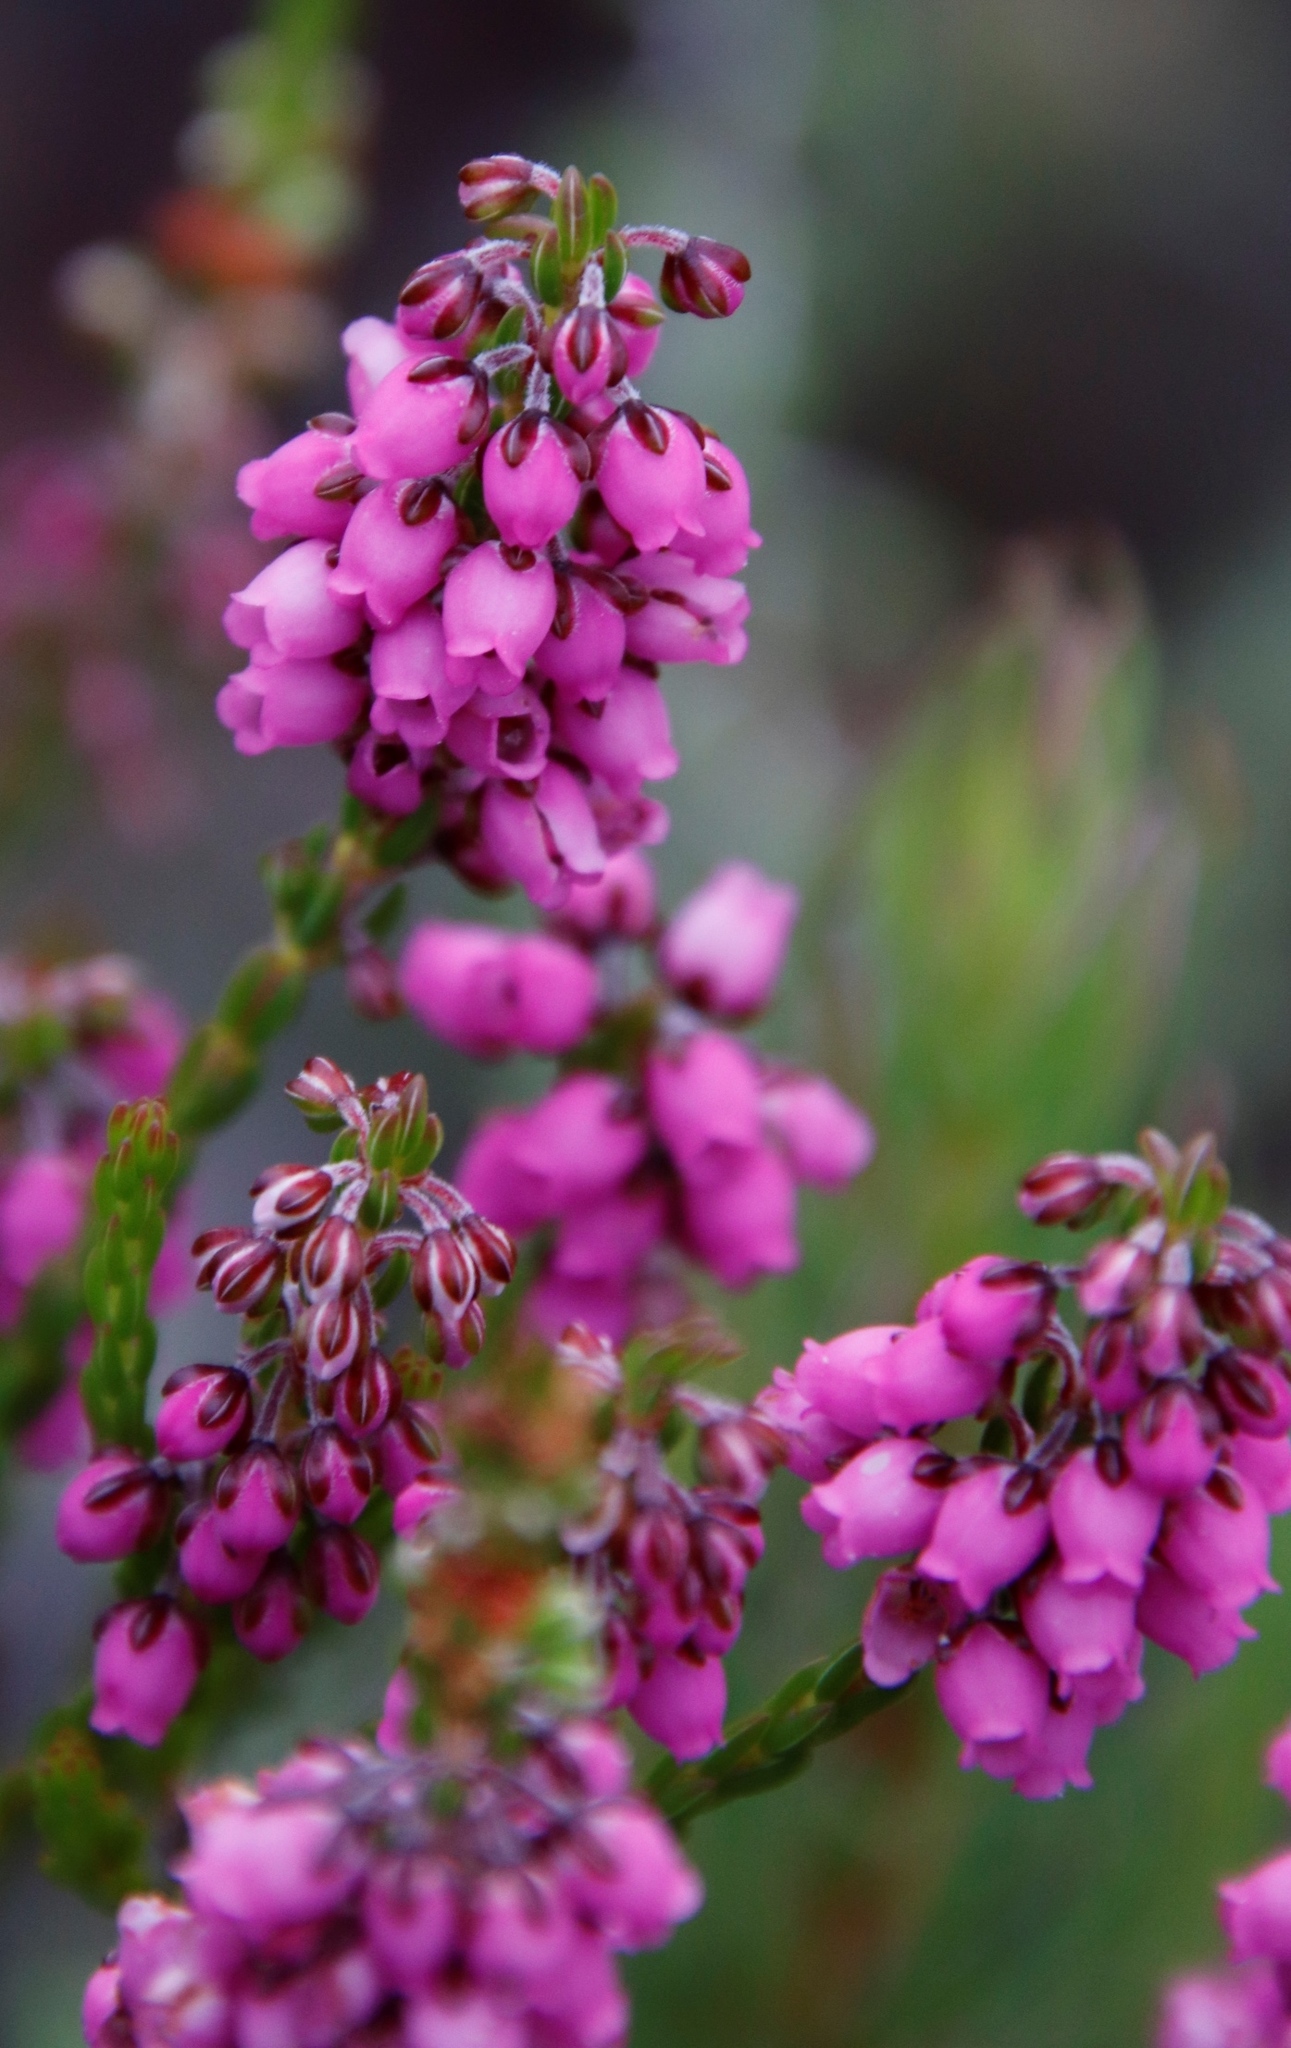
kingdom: Plantae
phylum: Tracheophyta
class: Magnoliopsida
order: Ericales
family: Ericaceae
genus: Erica
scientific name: Erica pulchella
